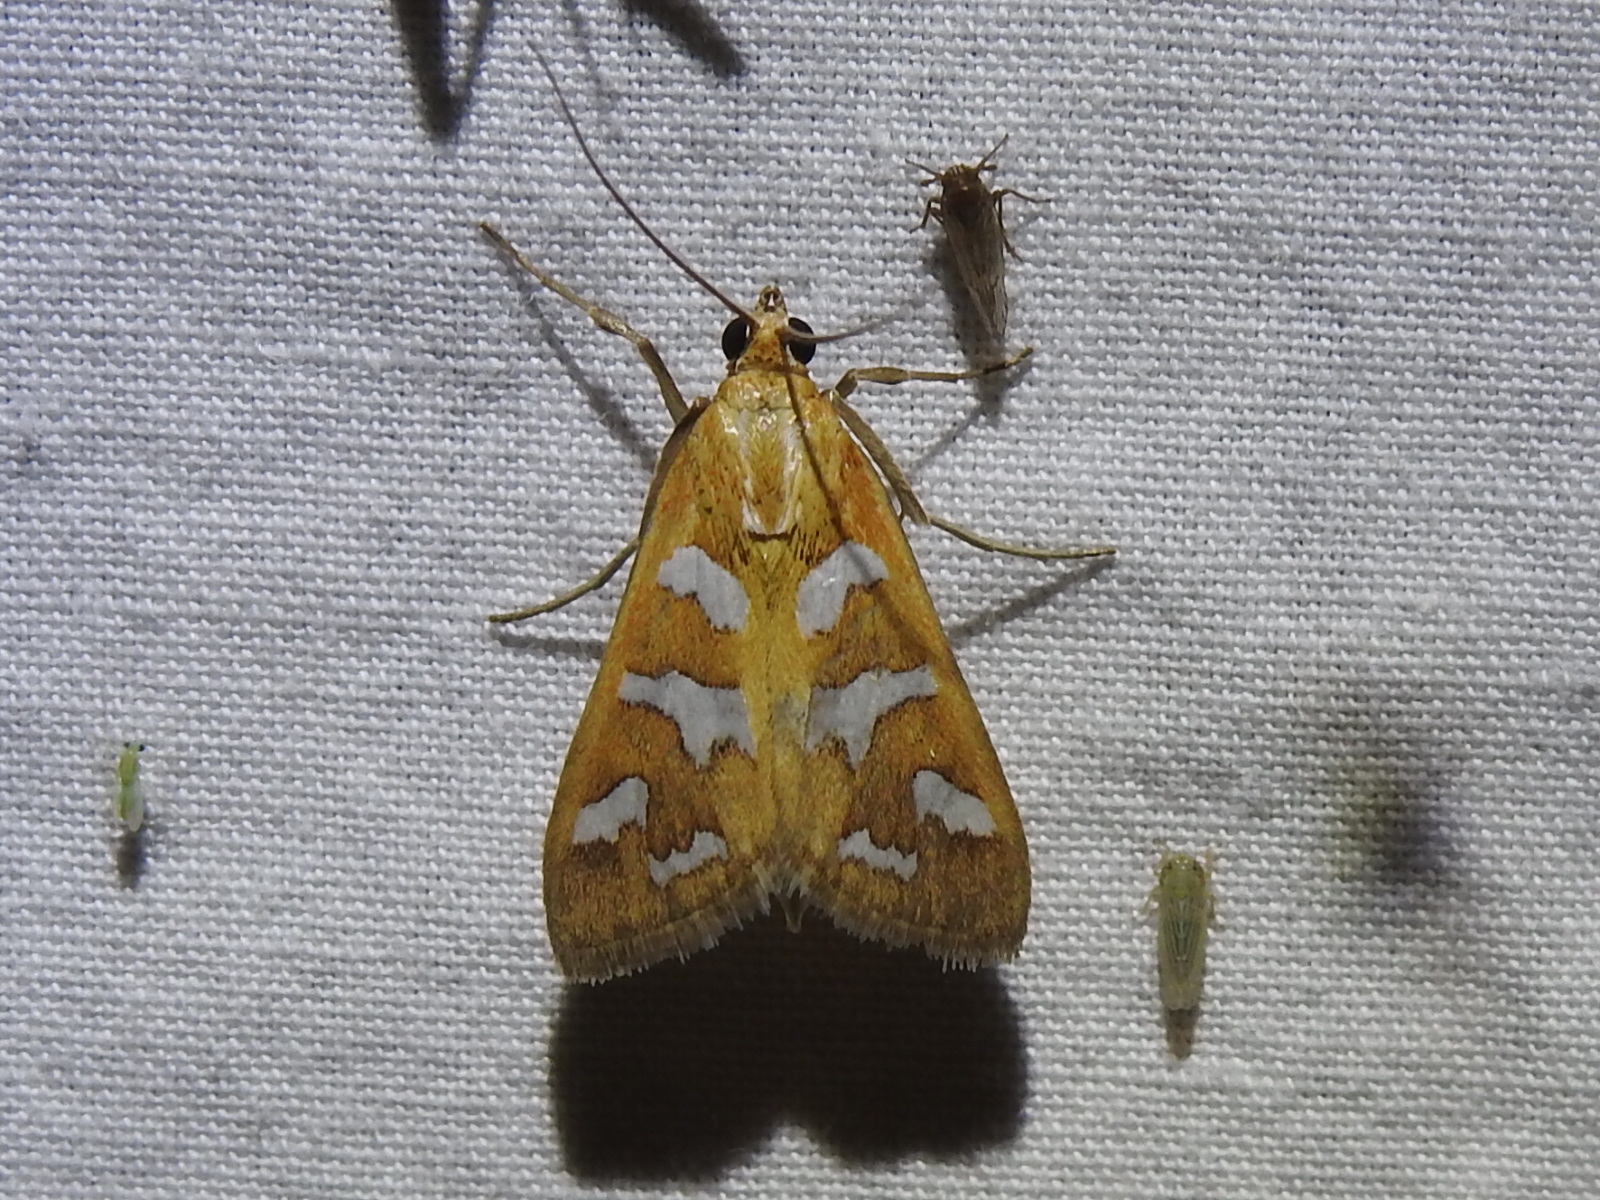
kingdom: Animalia
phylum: Arthropoda
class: Insecta
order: Lepidoptera
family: Crambidae
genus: Diastictis
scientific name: Diastictis fracturalis
